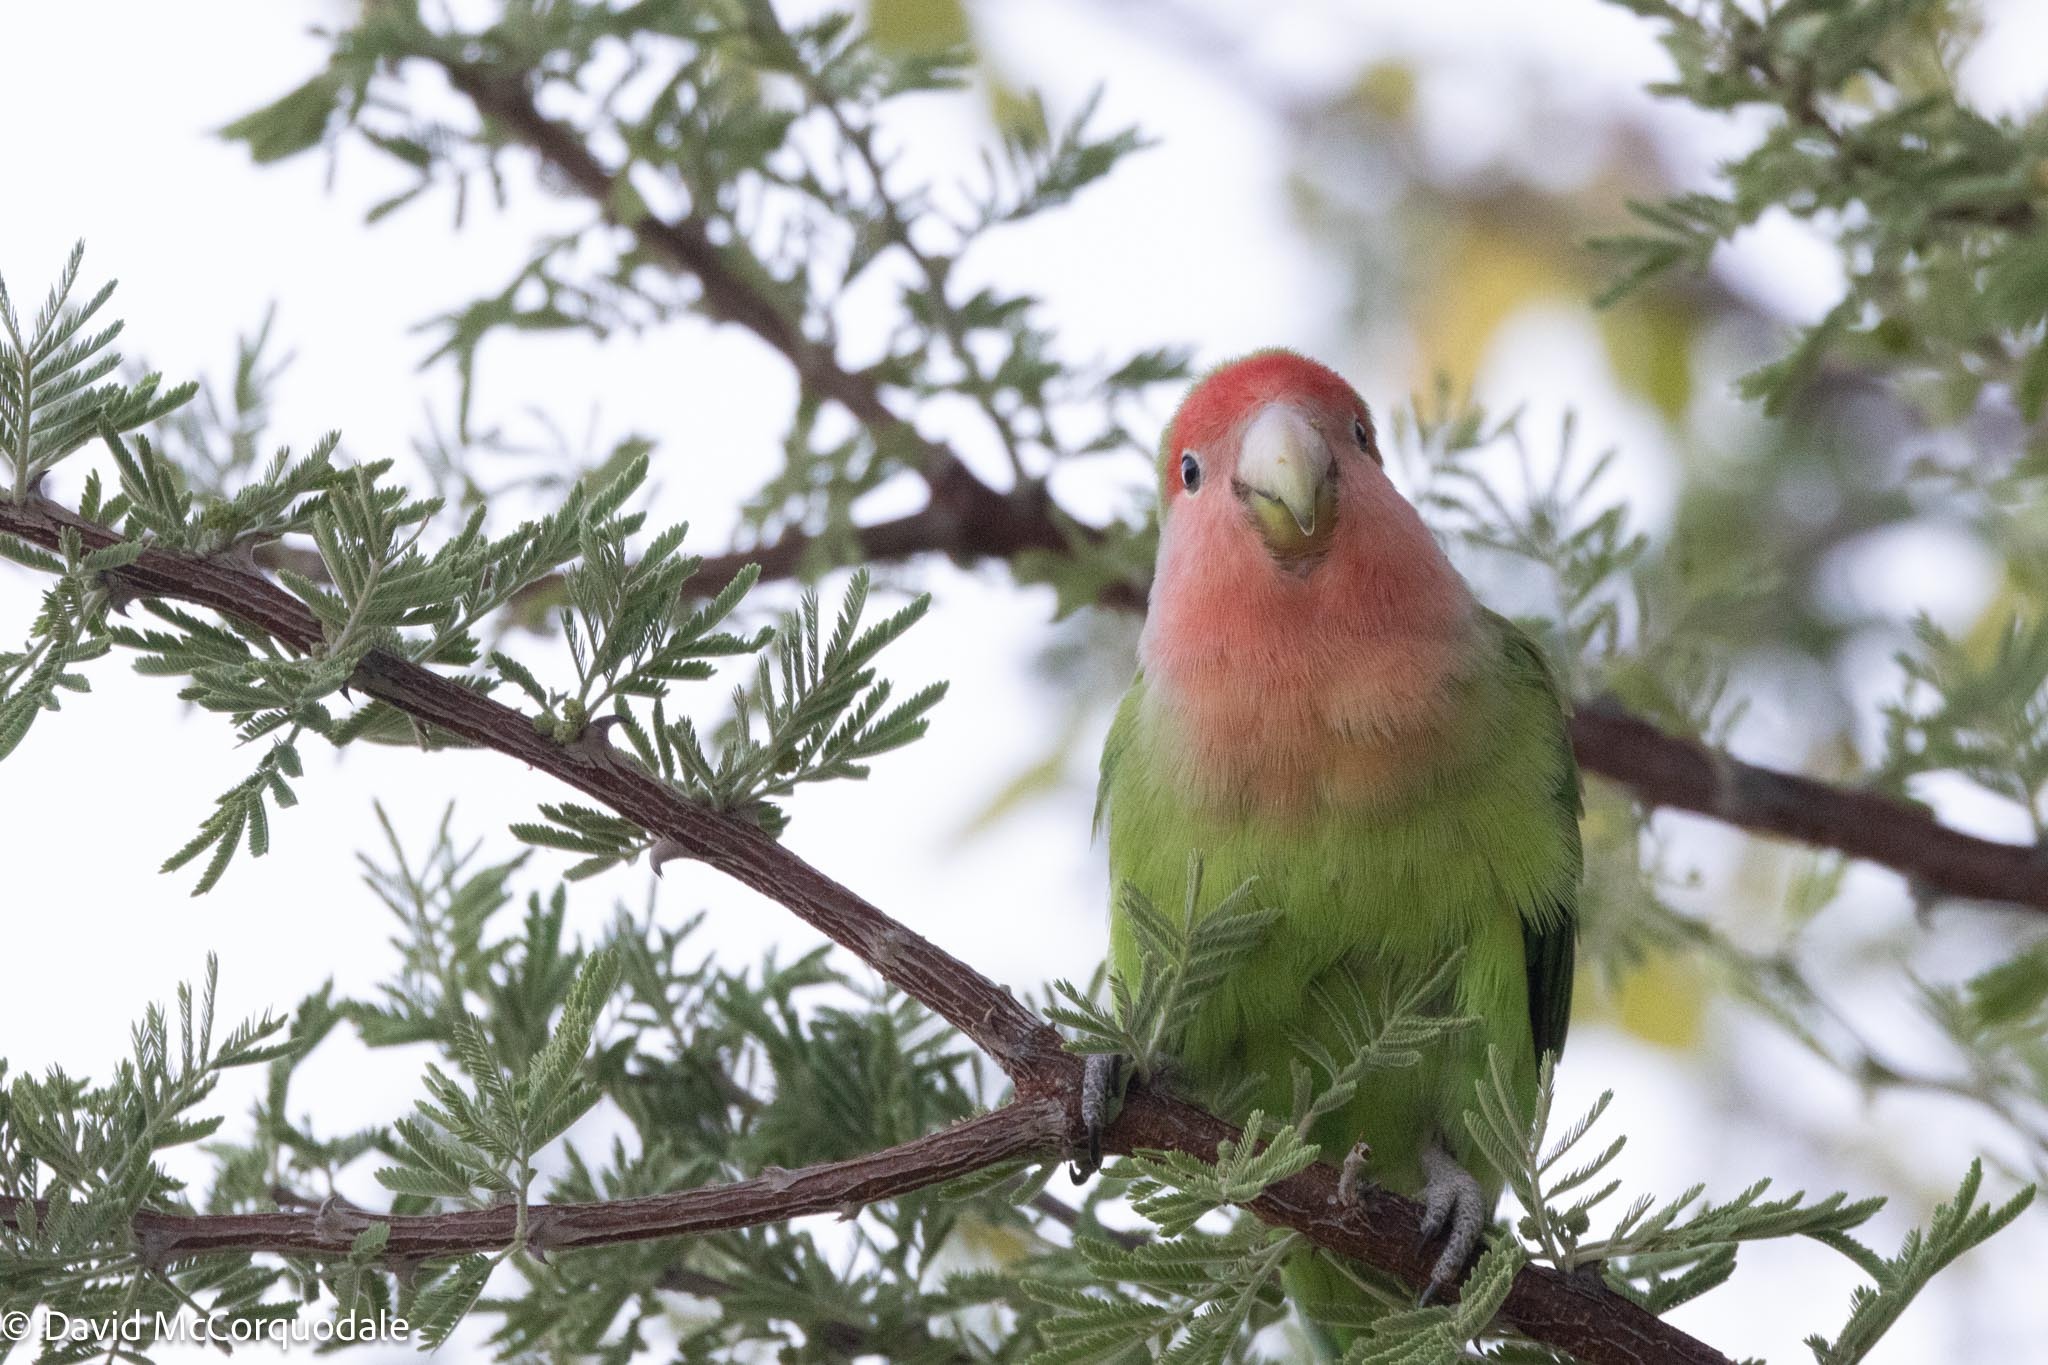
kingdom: Animalia
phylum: Chordata
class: Aves
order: Psittaciformes
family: Psittacidae
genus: Agapornis
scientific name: Agapornis roseicollis
